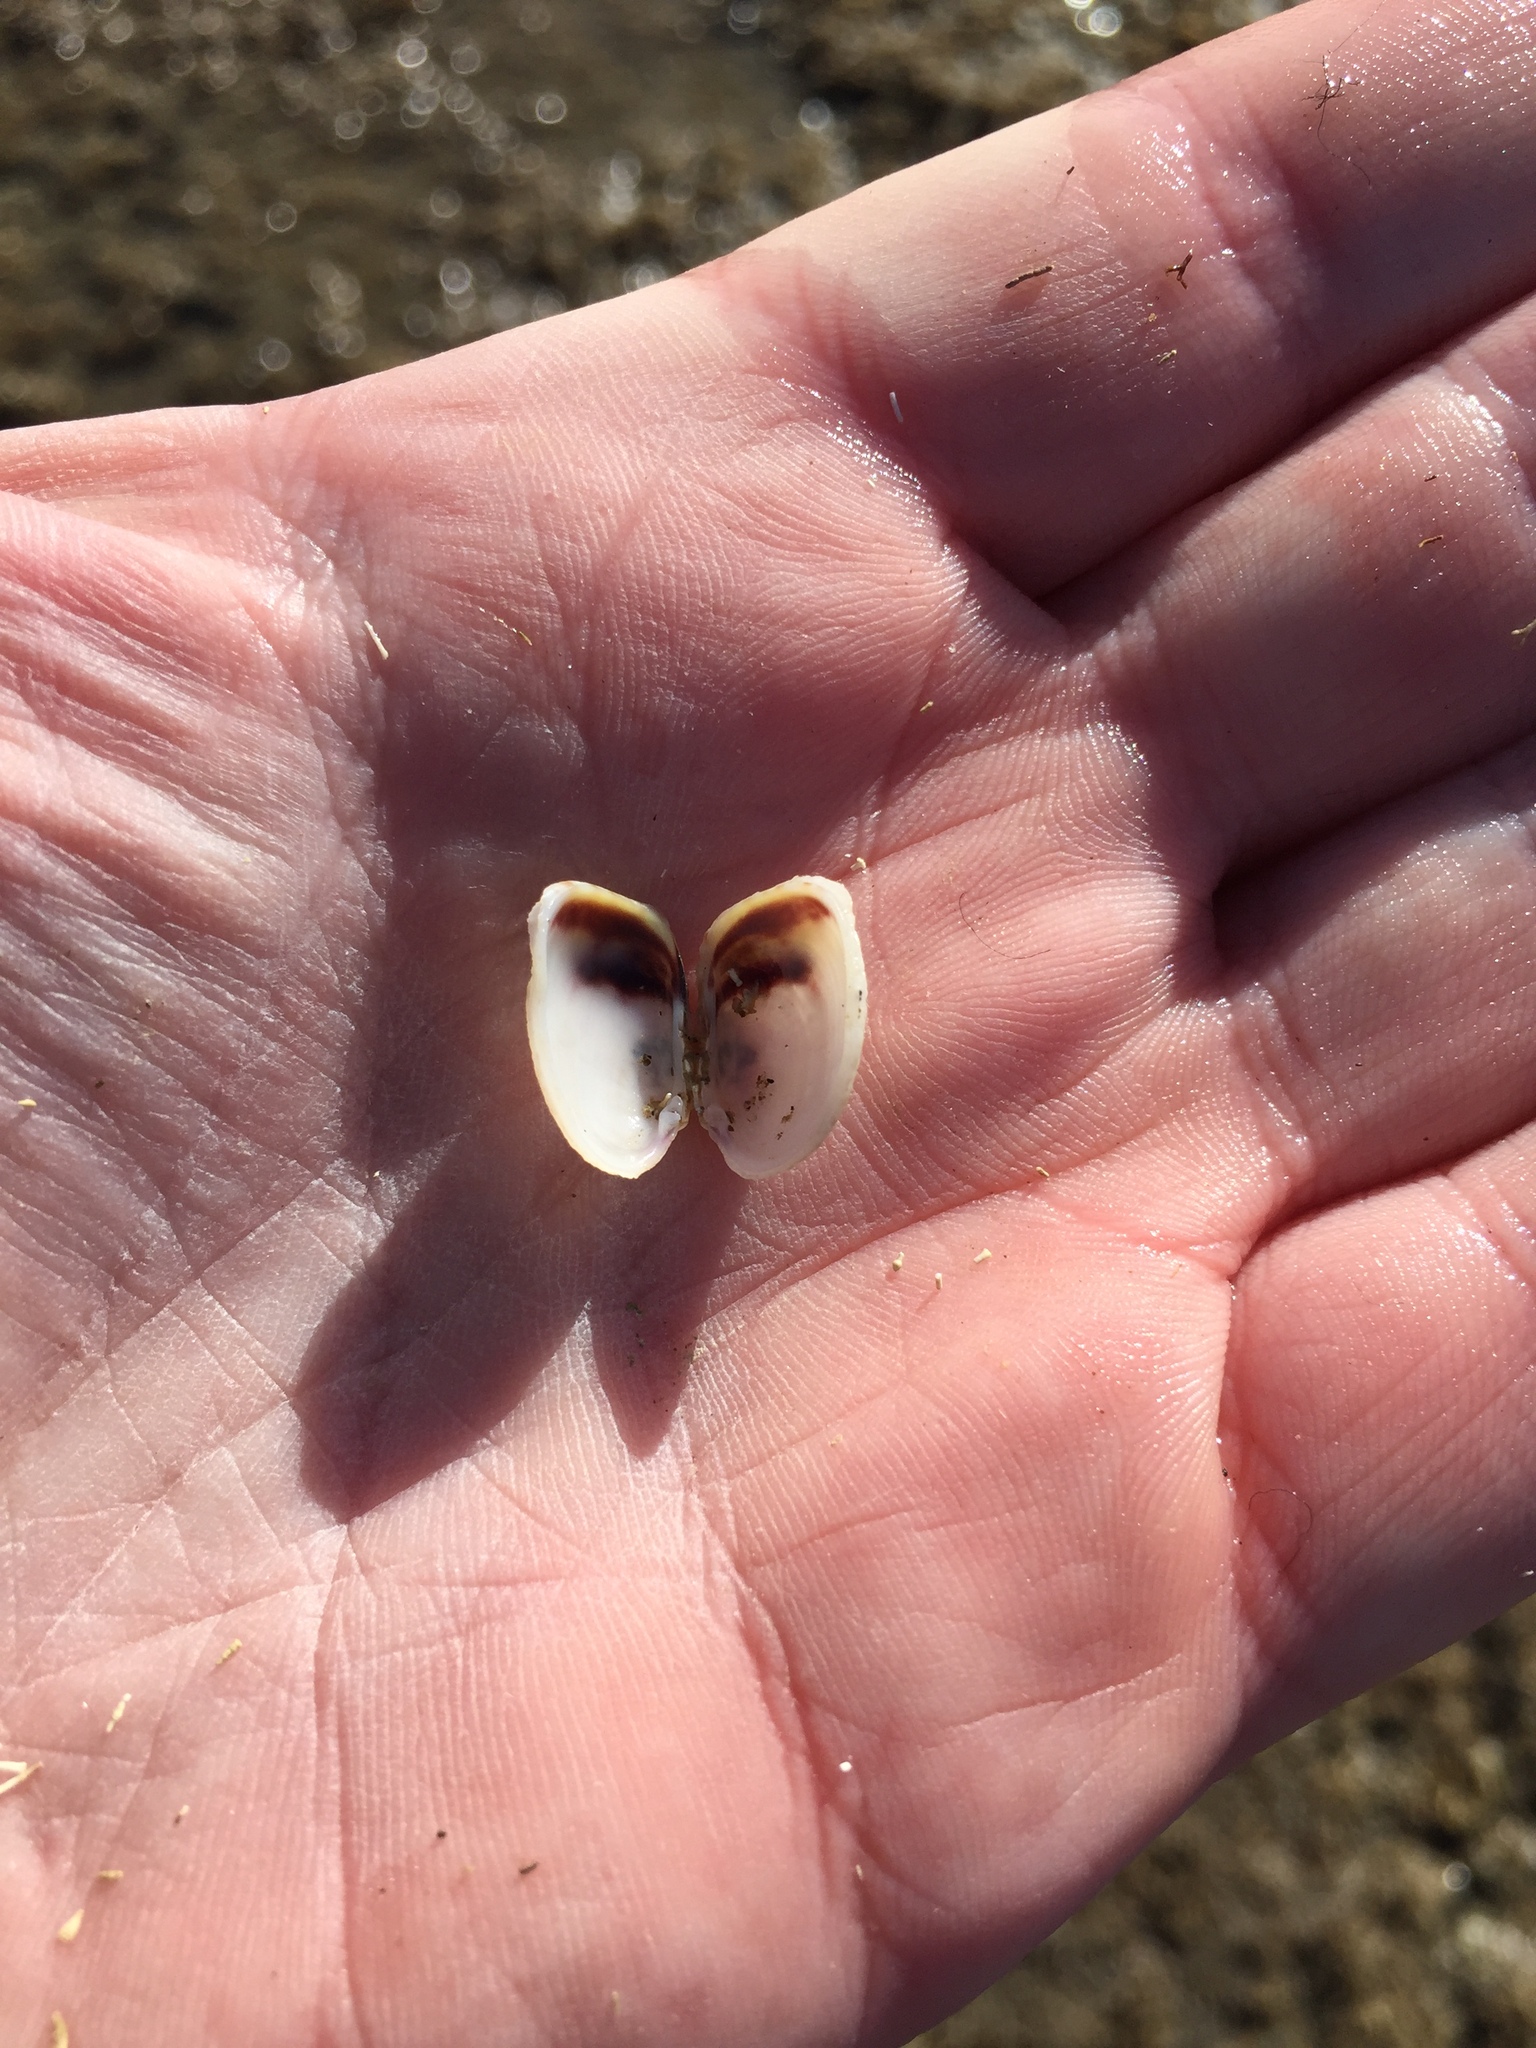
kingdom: Animalia
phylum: Mollusca
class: Bivalvia
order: Venerida
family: Veneridae
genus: Irus
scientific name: Irus reflexus
